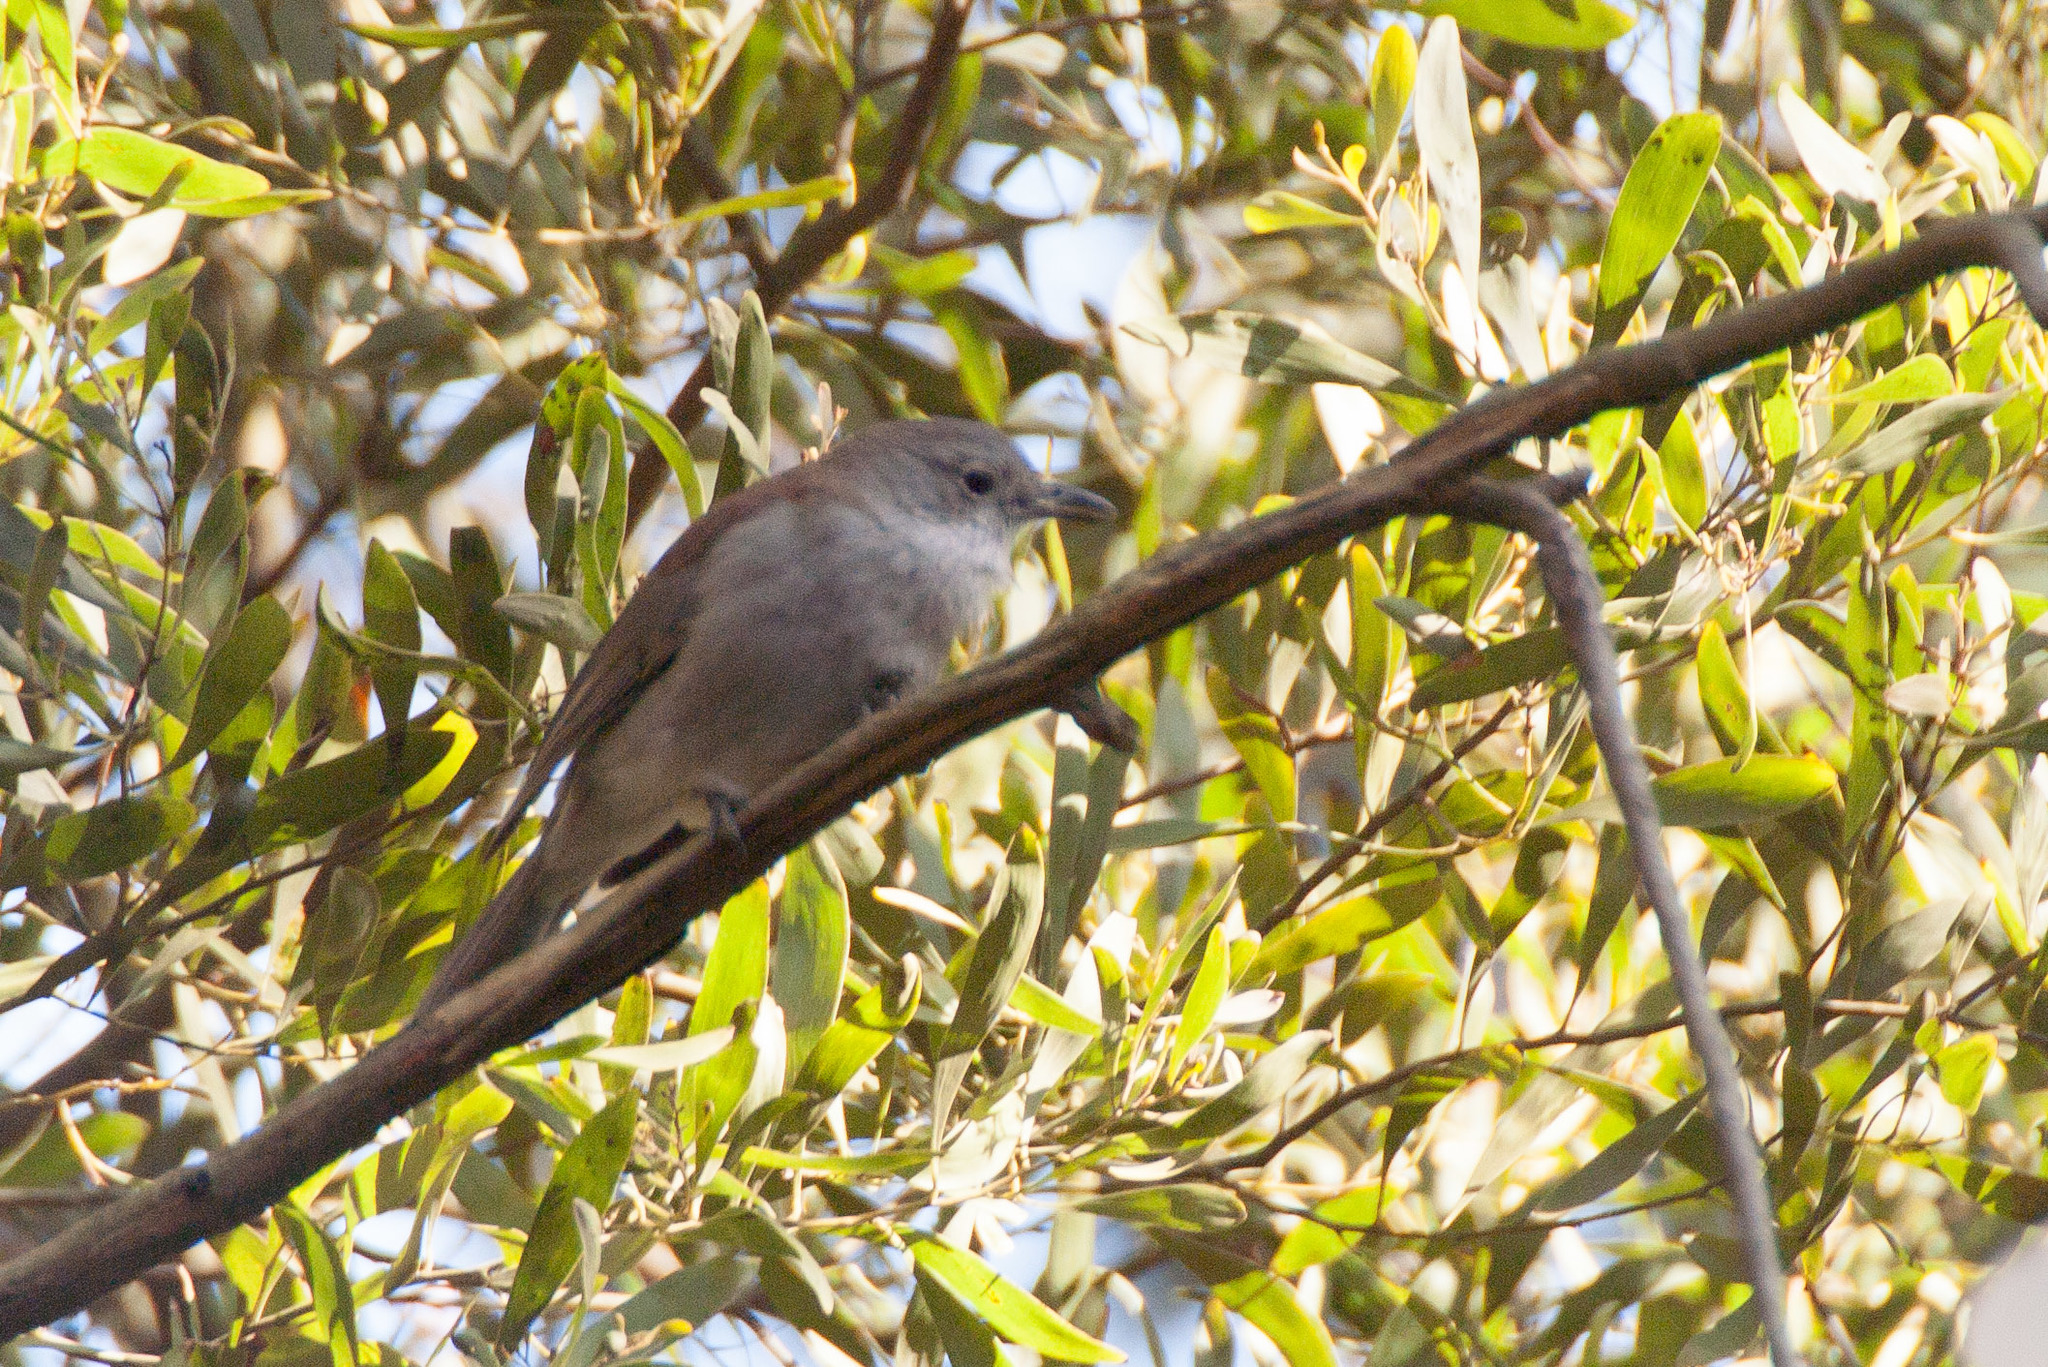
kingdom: Animalia
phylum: Chordata
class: Aves
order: Passeriformes
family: Pachycephalidae
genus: Colluricincla
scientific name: Colluricincla harmonica
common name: Grey shrikethrush
